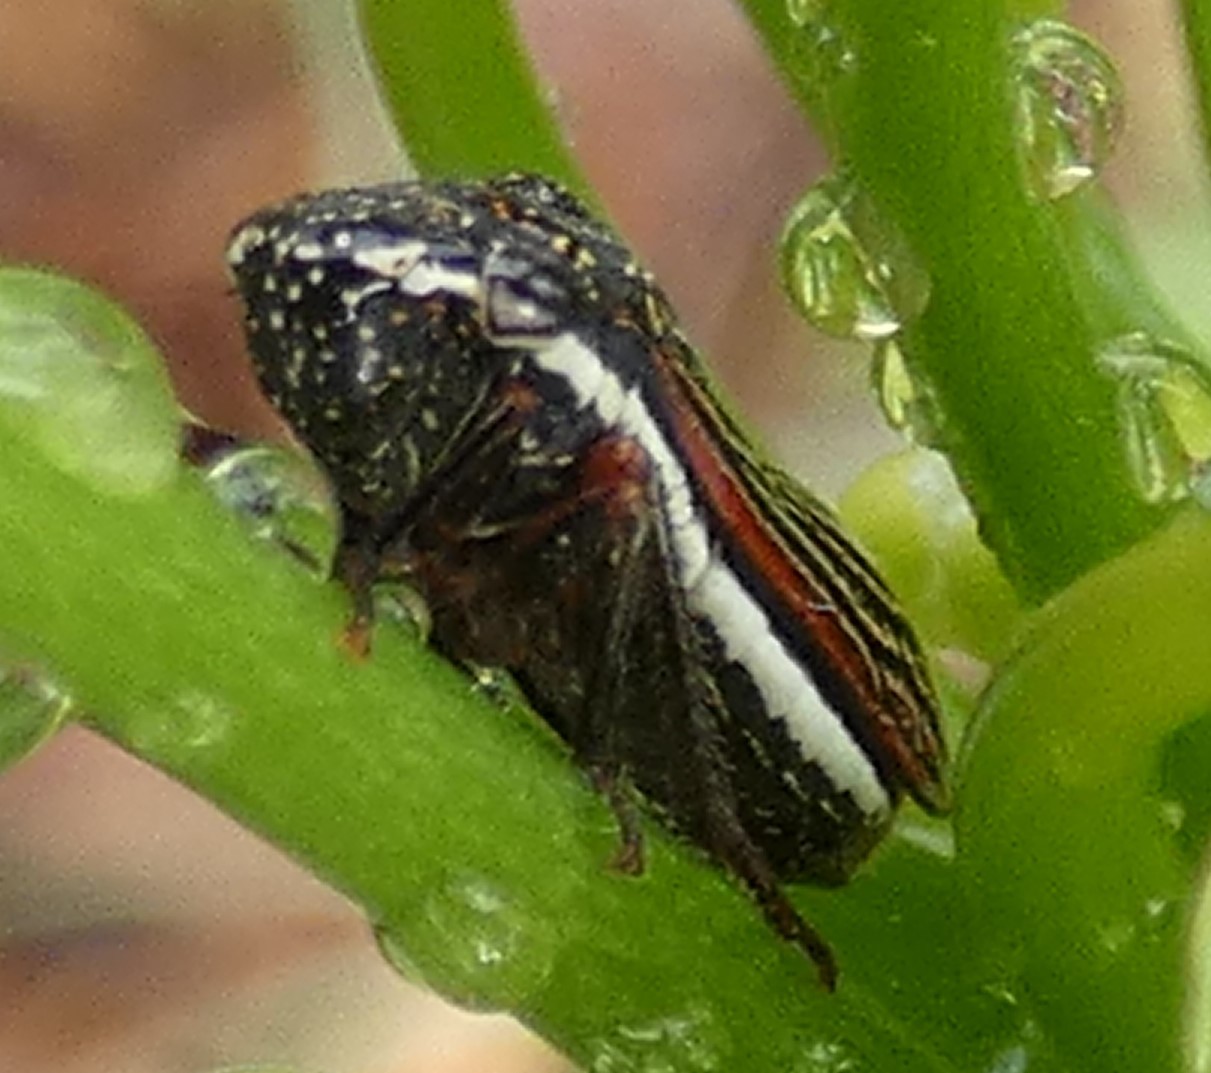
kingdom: Animalia
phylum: Arthropoda
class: Insecta
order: Hemiptera
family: Cicadellidae
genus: Cuerna
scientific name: Cuerna costalis
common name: Lateral-lined sharpshooter
